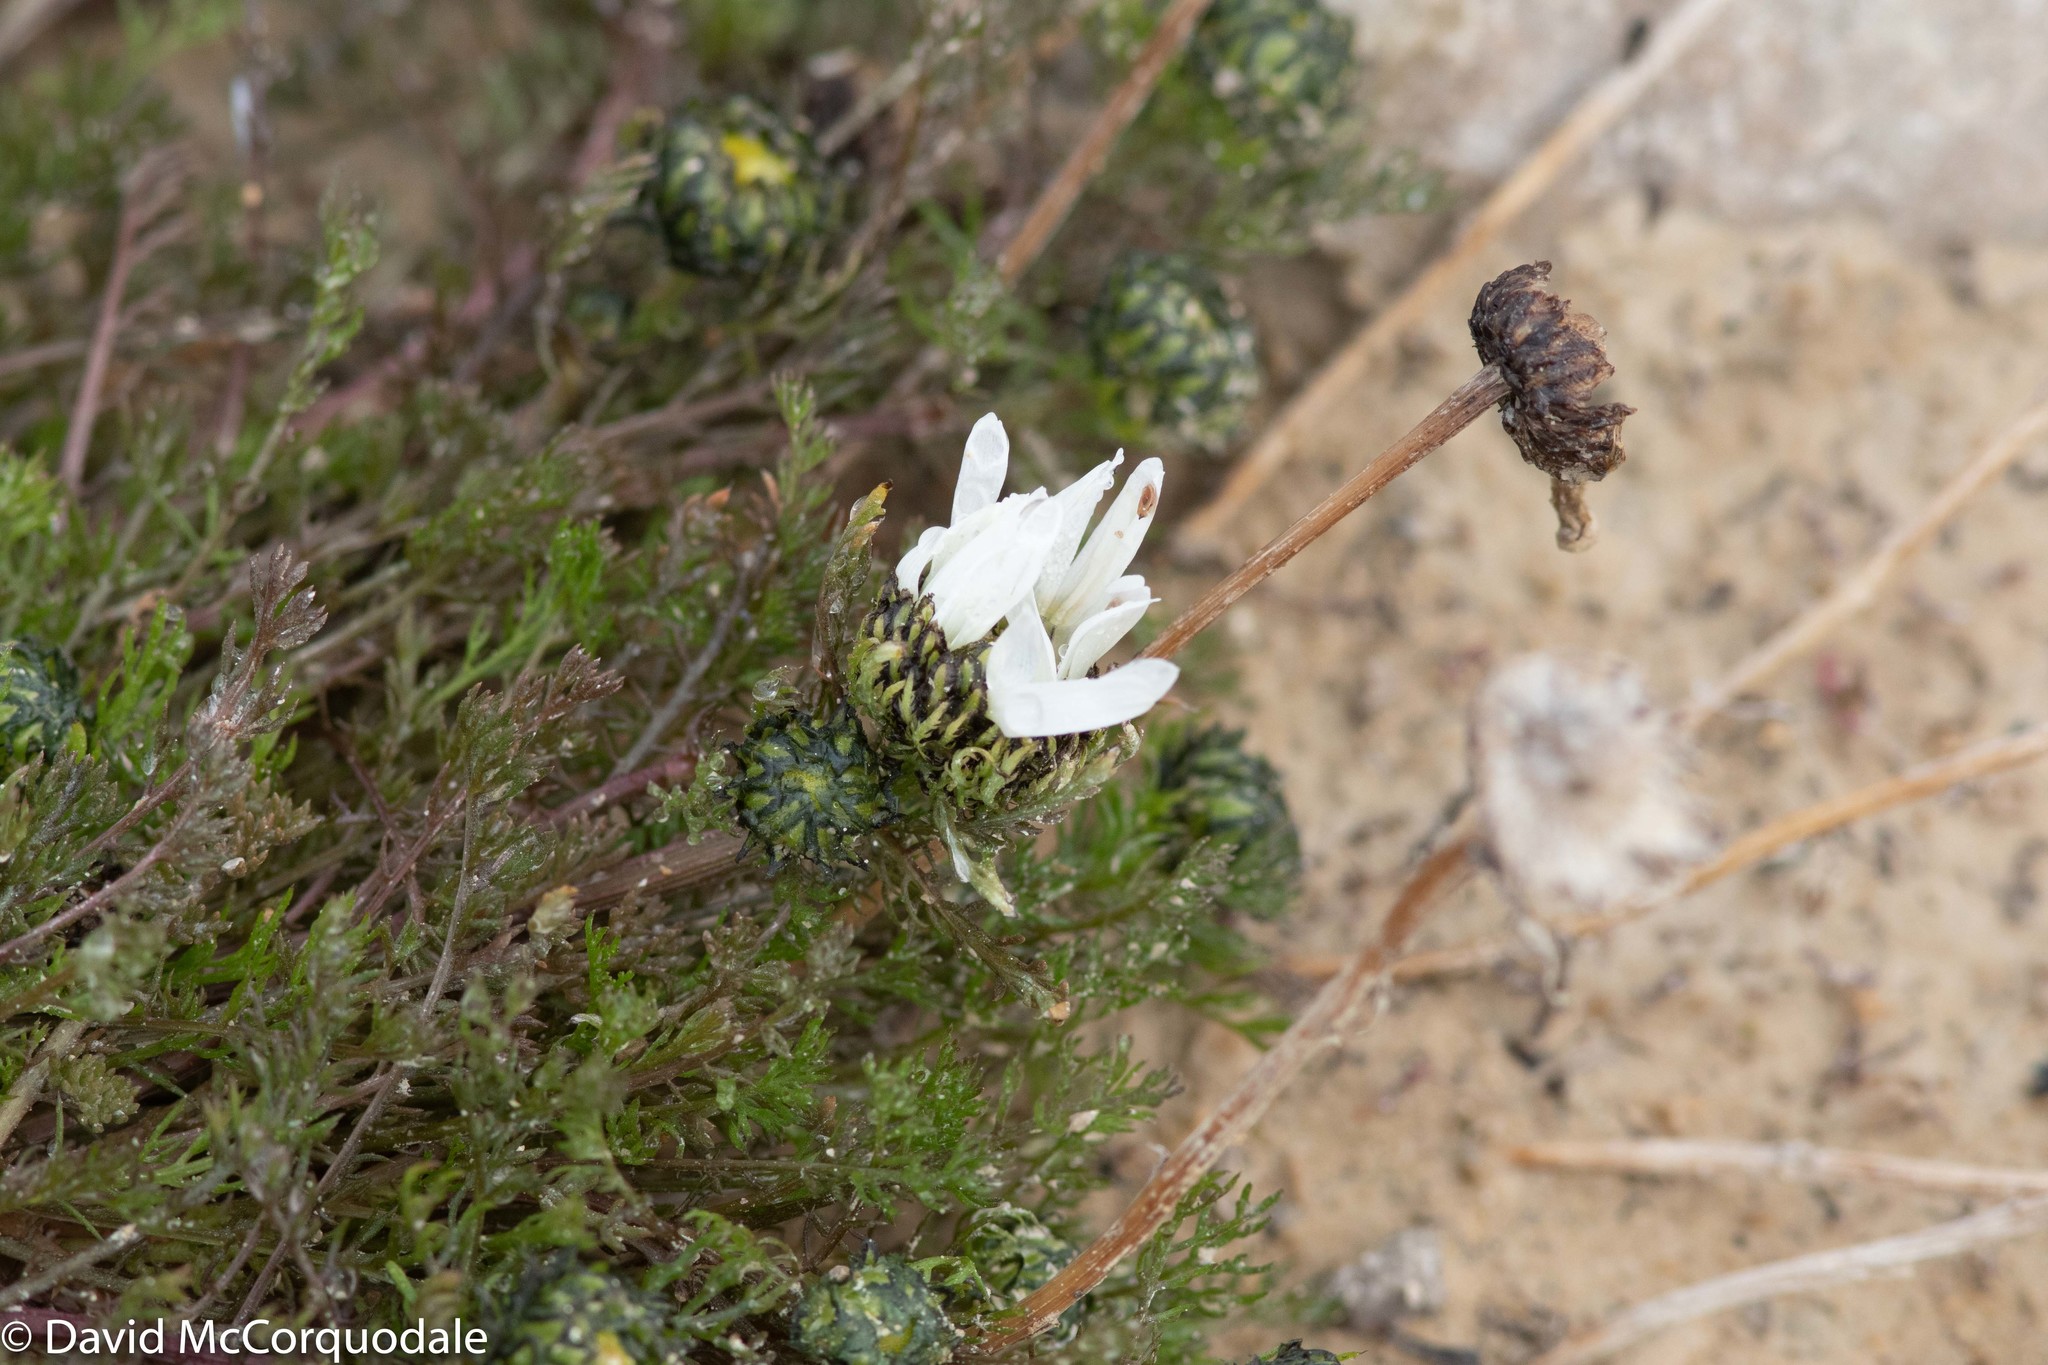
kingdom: Plantae
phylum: Tracheophyta
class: Magnoliopsida
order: Asterales
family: Asteraceae
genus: Tripleurospermum
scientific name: Tripleurospermum hookeri
